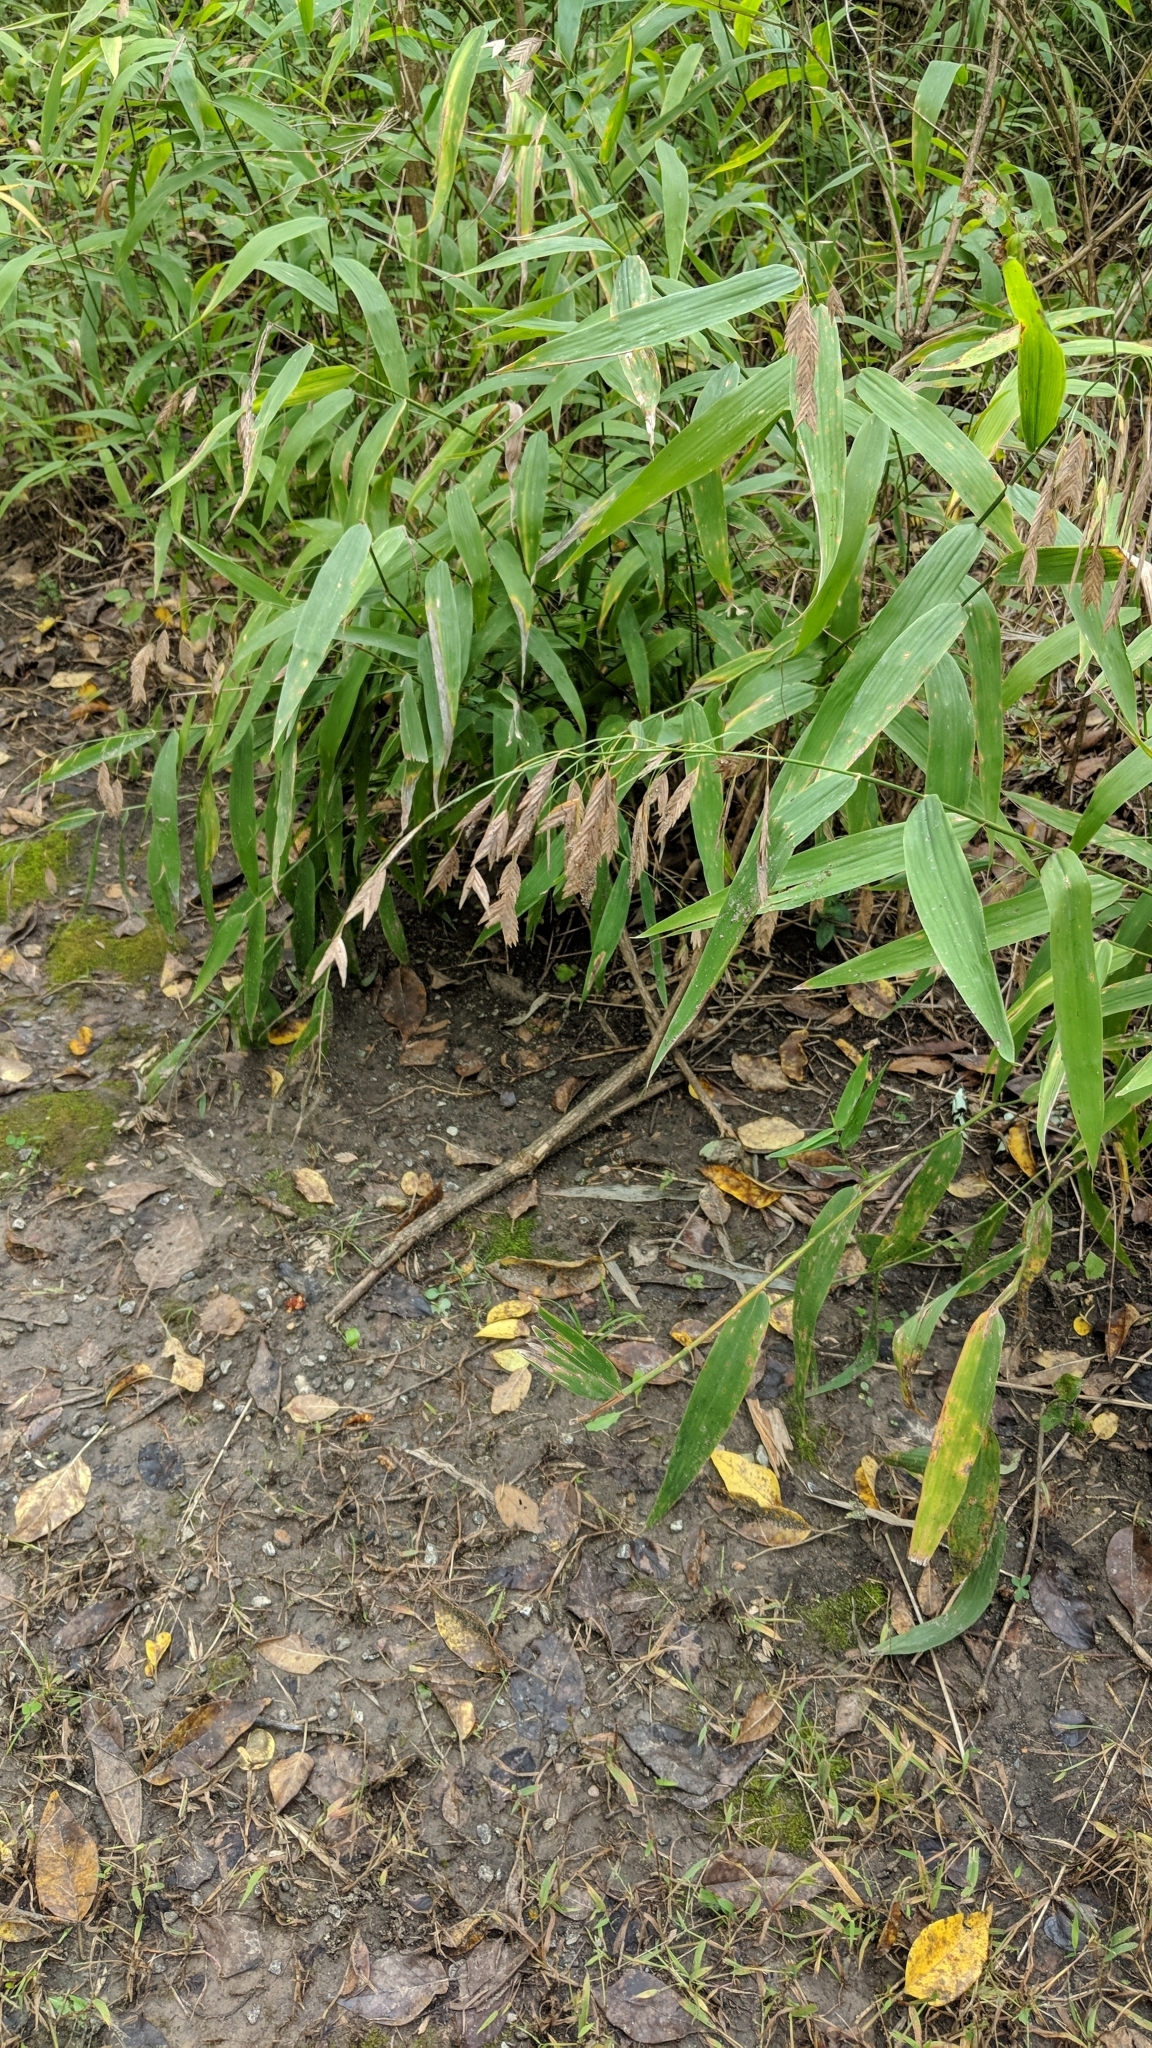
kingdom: Plantae
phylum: Tracheophyta
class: Liliopsida
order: Poales
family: Poaceae
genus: Chasmanthium
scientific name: Chasmanthium latifolium
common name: Broad-leaved chasmanthium
